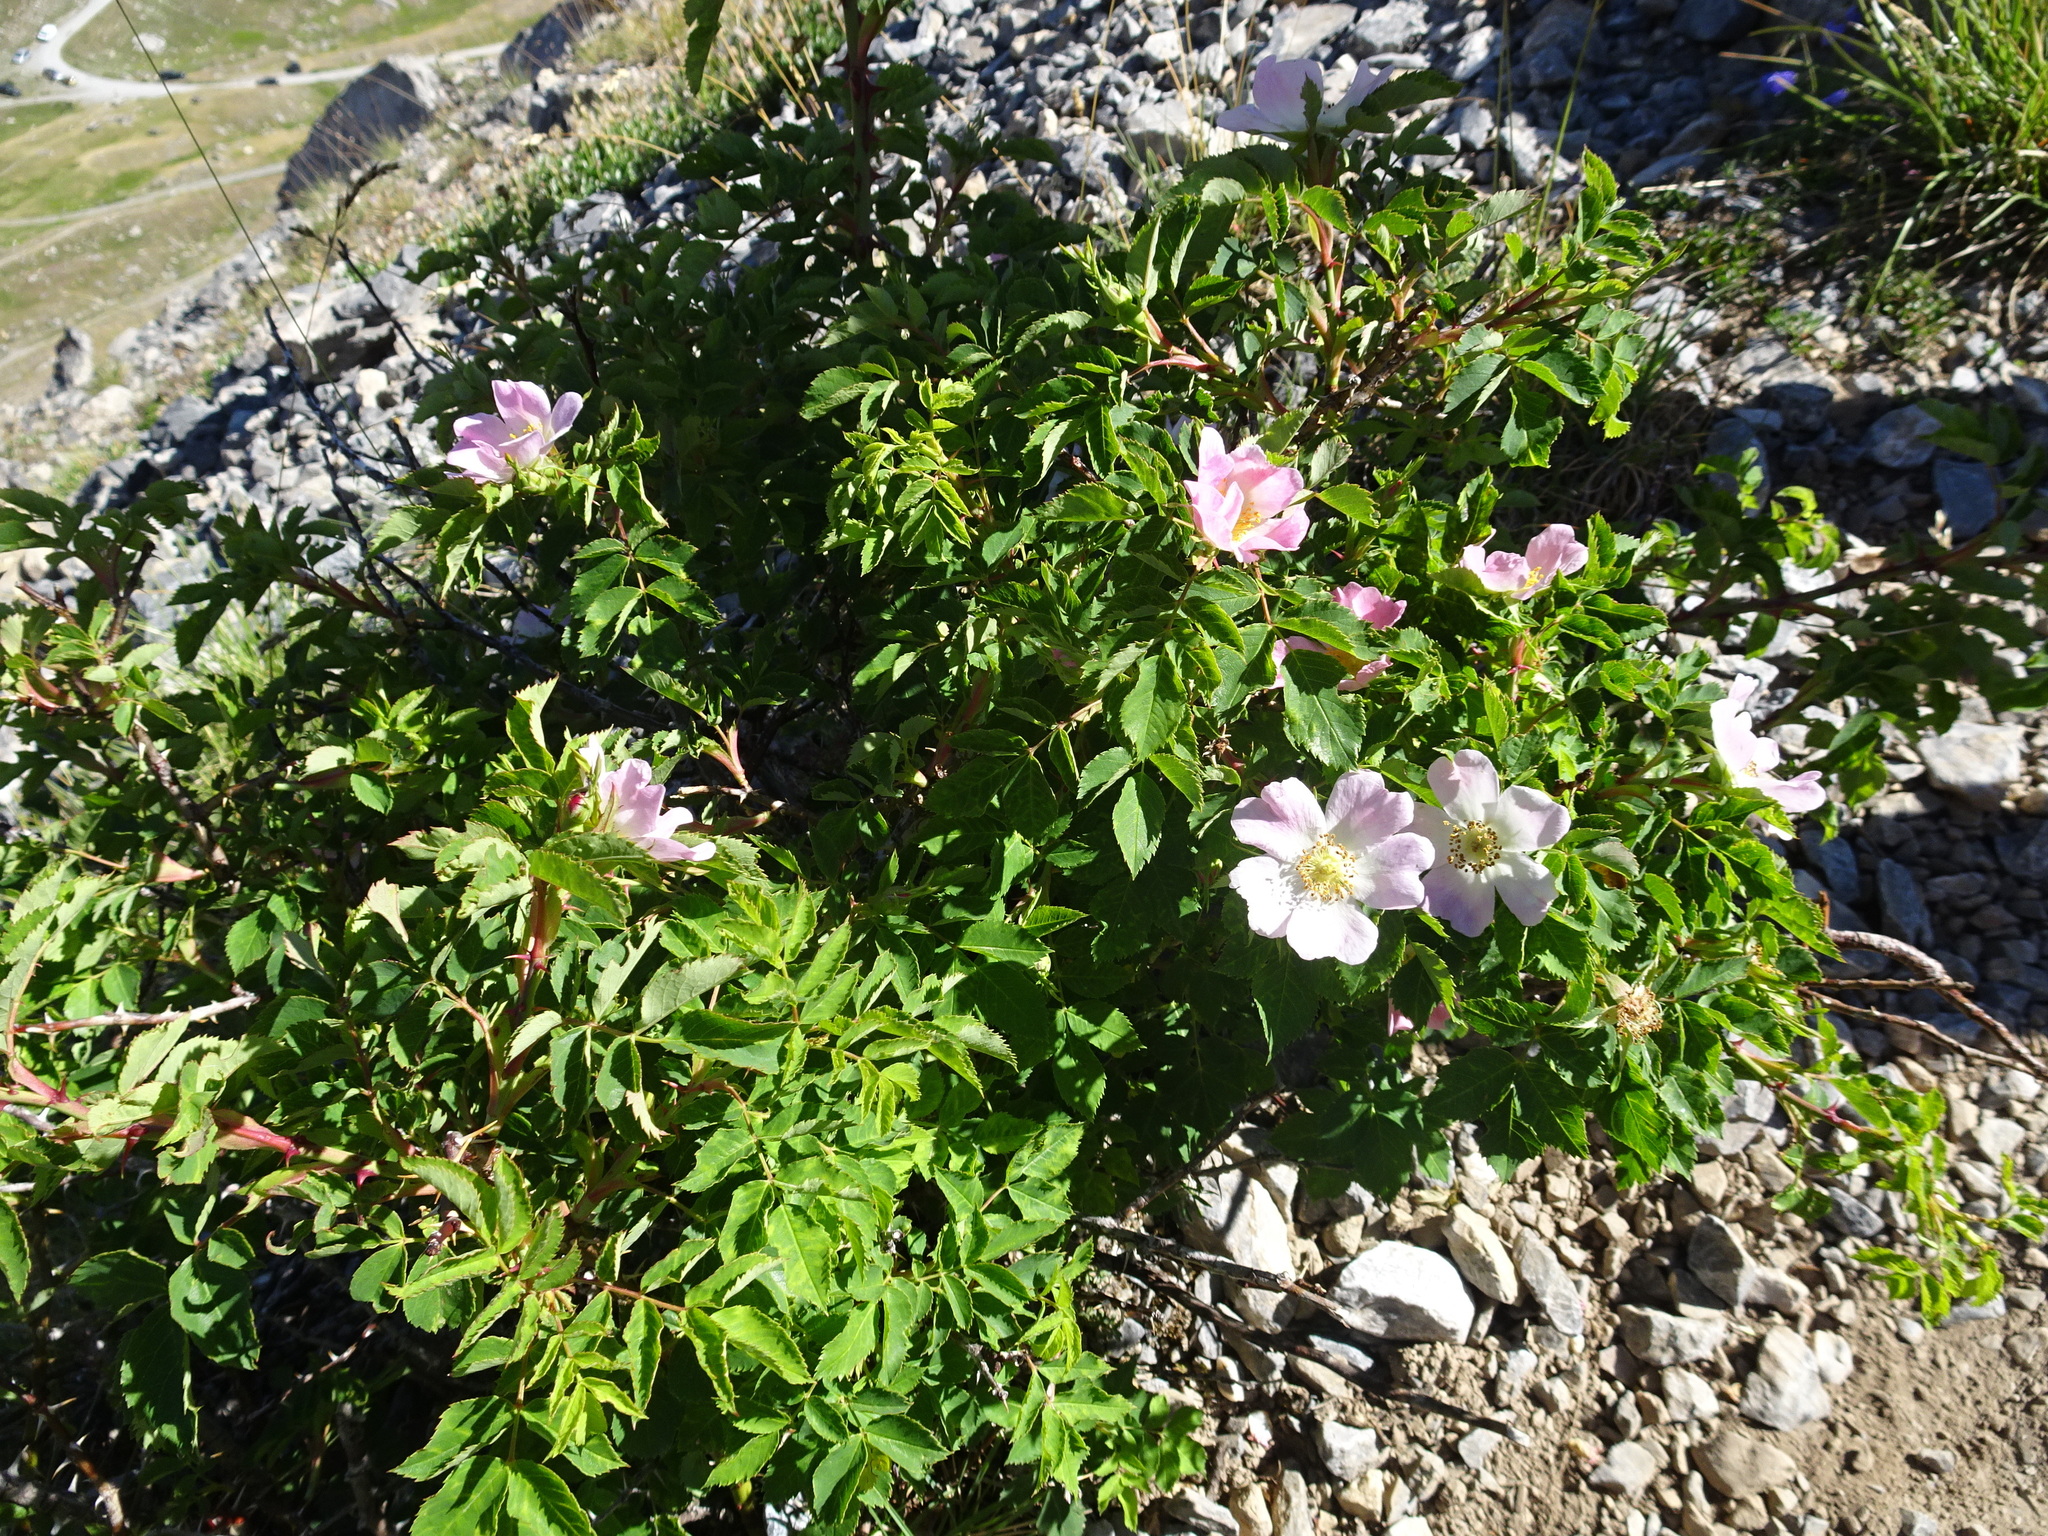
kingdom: Plantae
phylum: Tracheophyta
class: Magnoliopsida
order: Rosales
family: Rosaceae
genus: Rosa
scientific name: Rosa canina
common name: Dog rose
